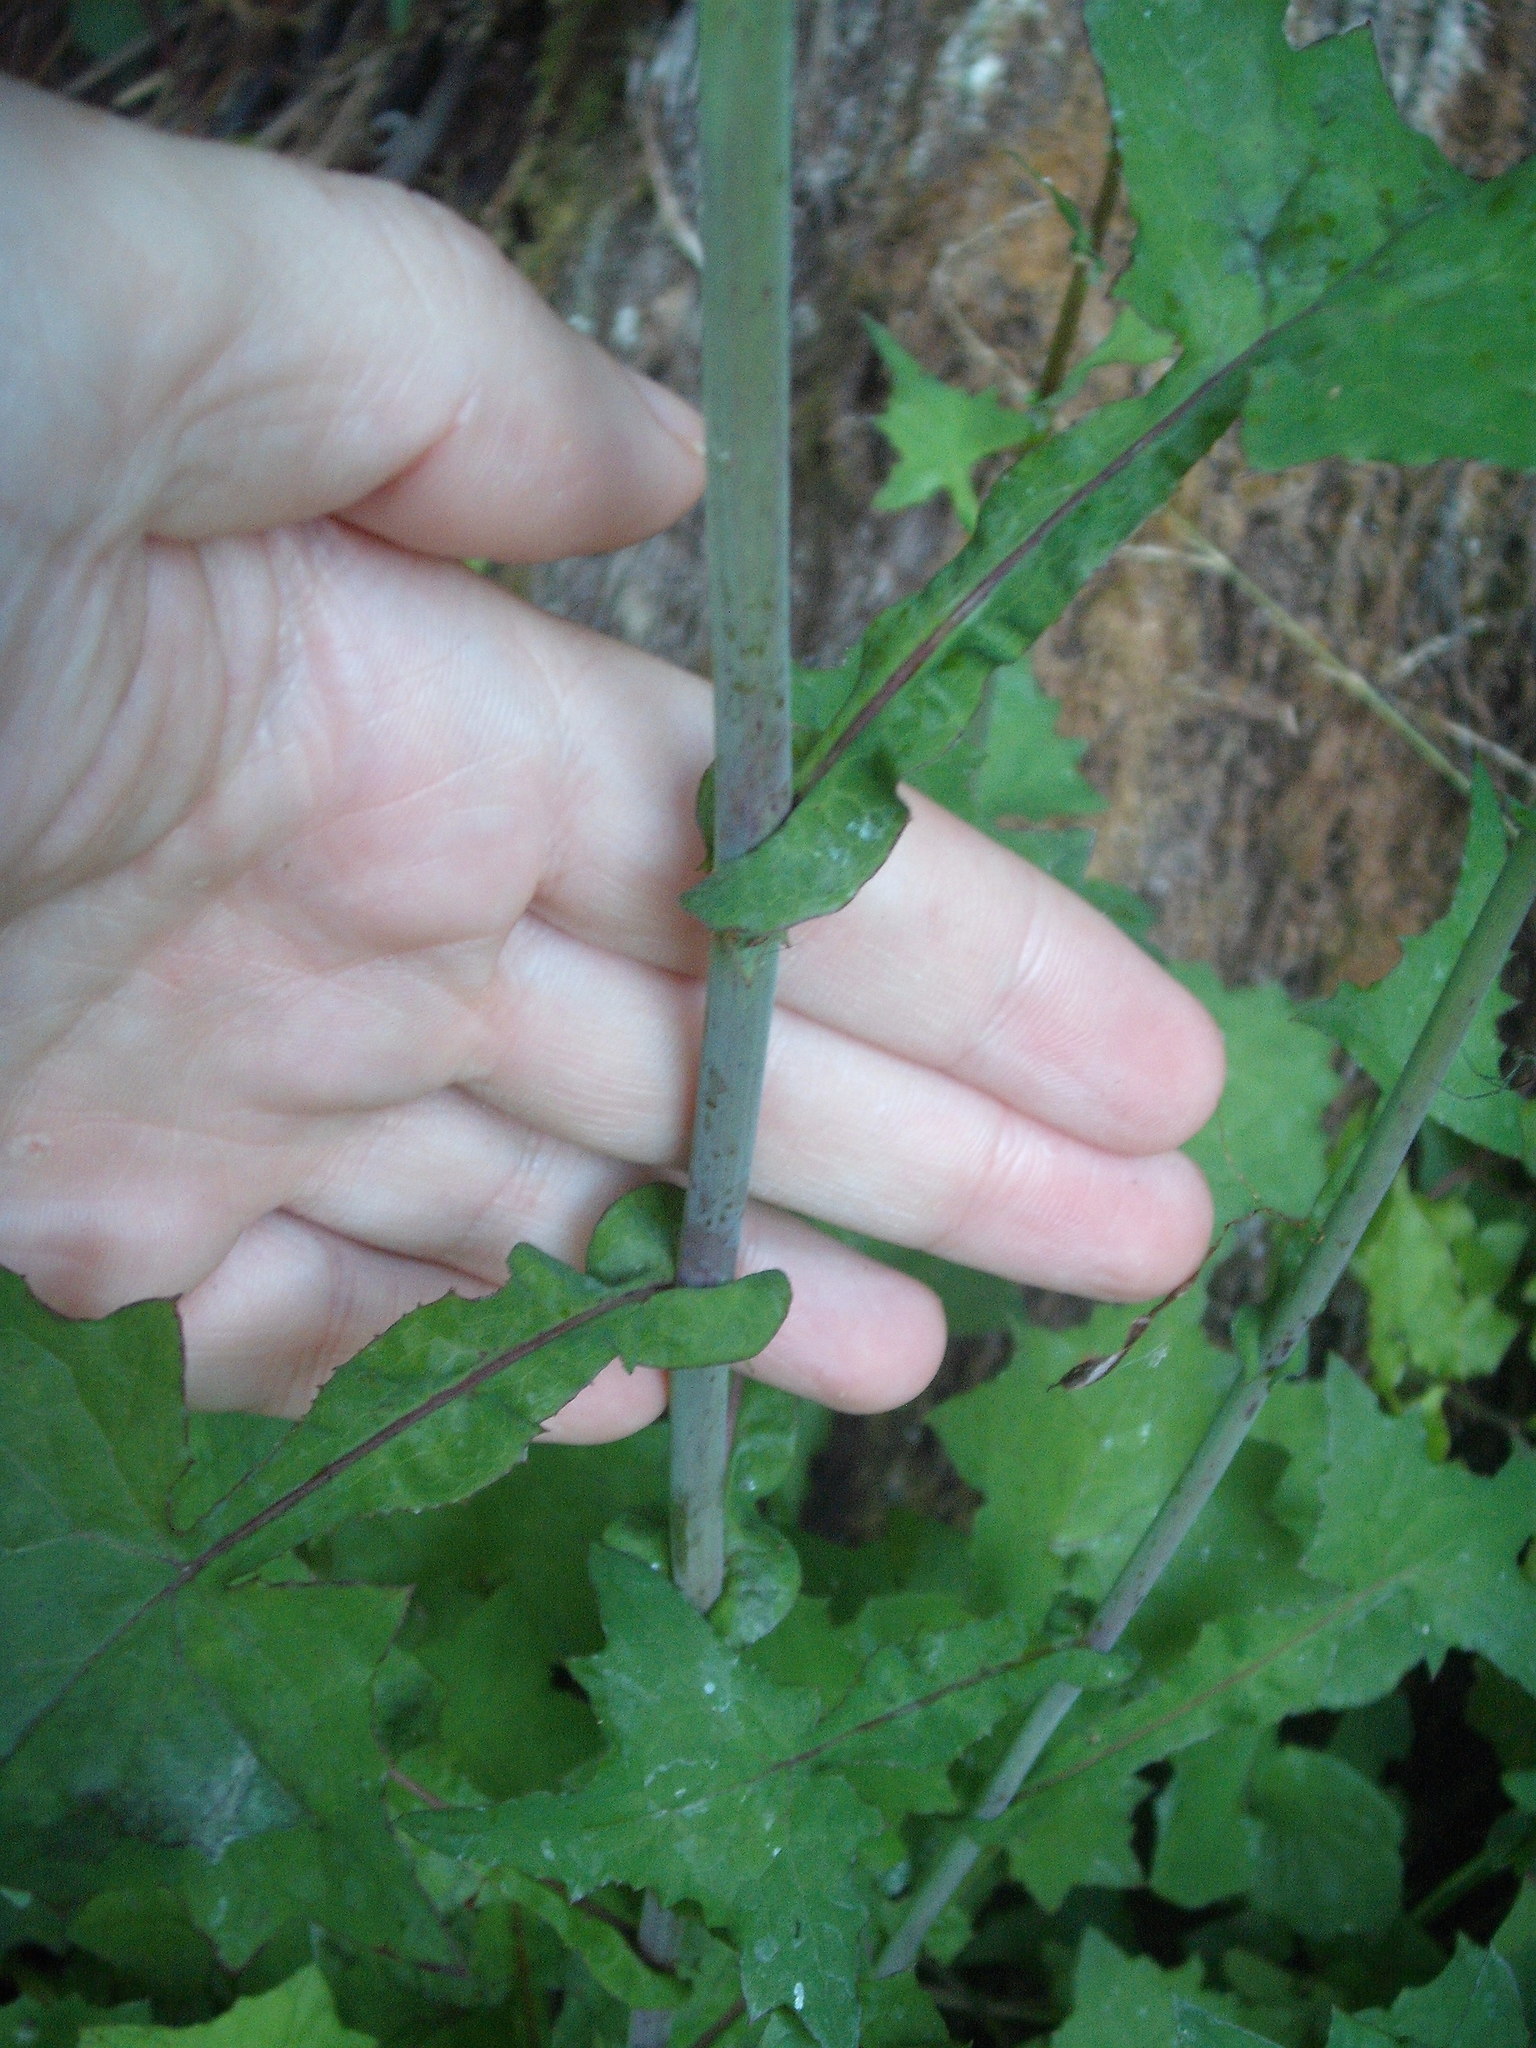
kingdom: Plantae
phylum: Tracheophyta
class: Magnoliopsida
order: Asterales
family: Asteraceae
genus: Mycelis
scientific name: Mycelis muralis
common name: Wall lettuce
